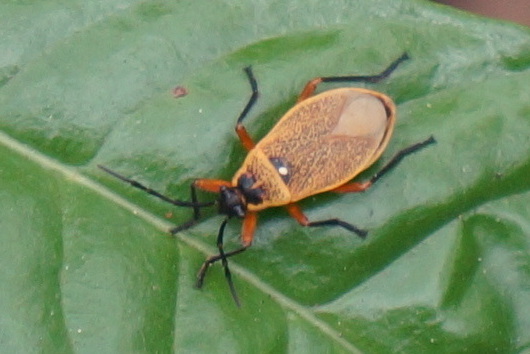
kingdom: Animalia
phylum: Arthropoda
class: Insecta
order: Hemiptera
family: Largidae
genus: Largus
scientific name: Largus davisi
